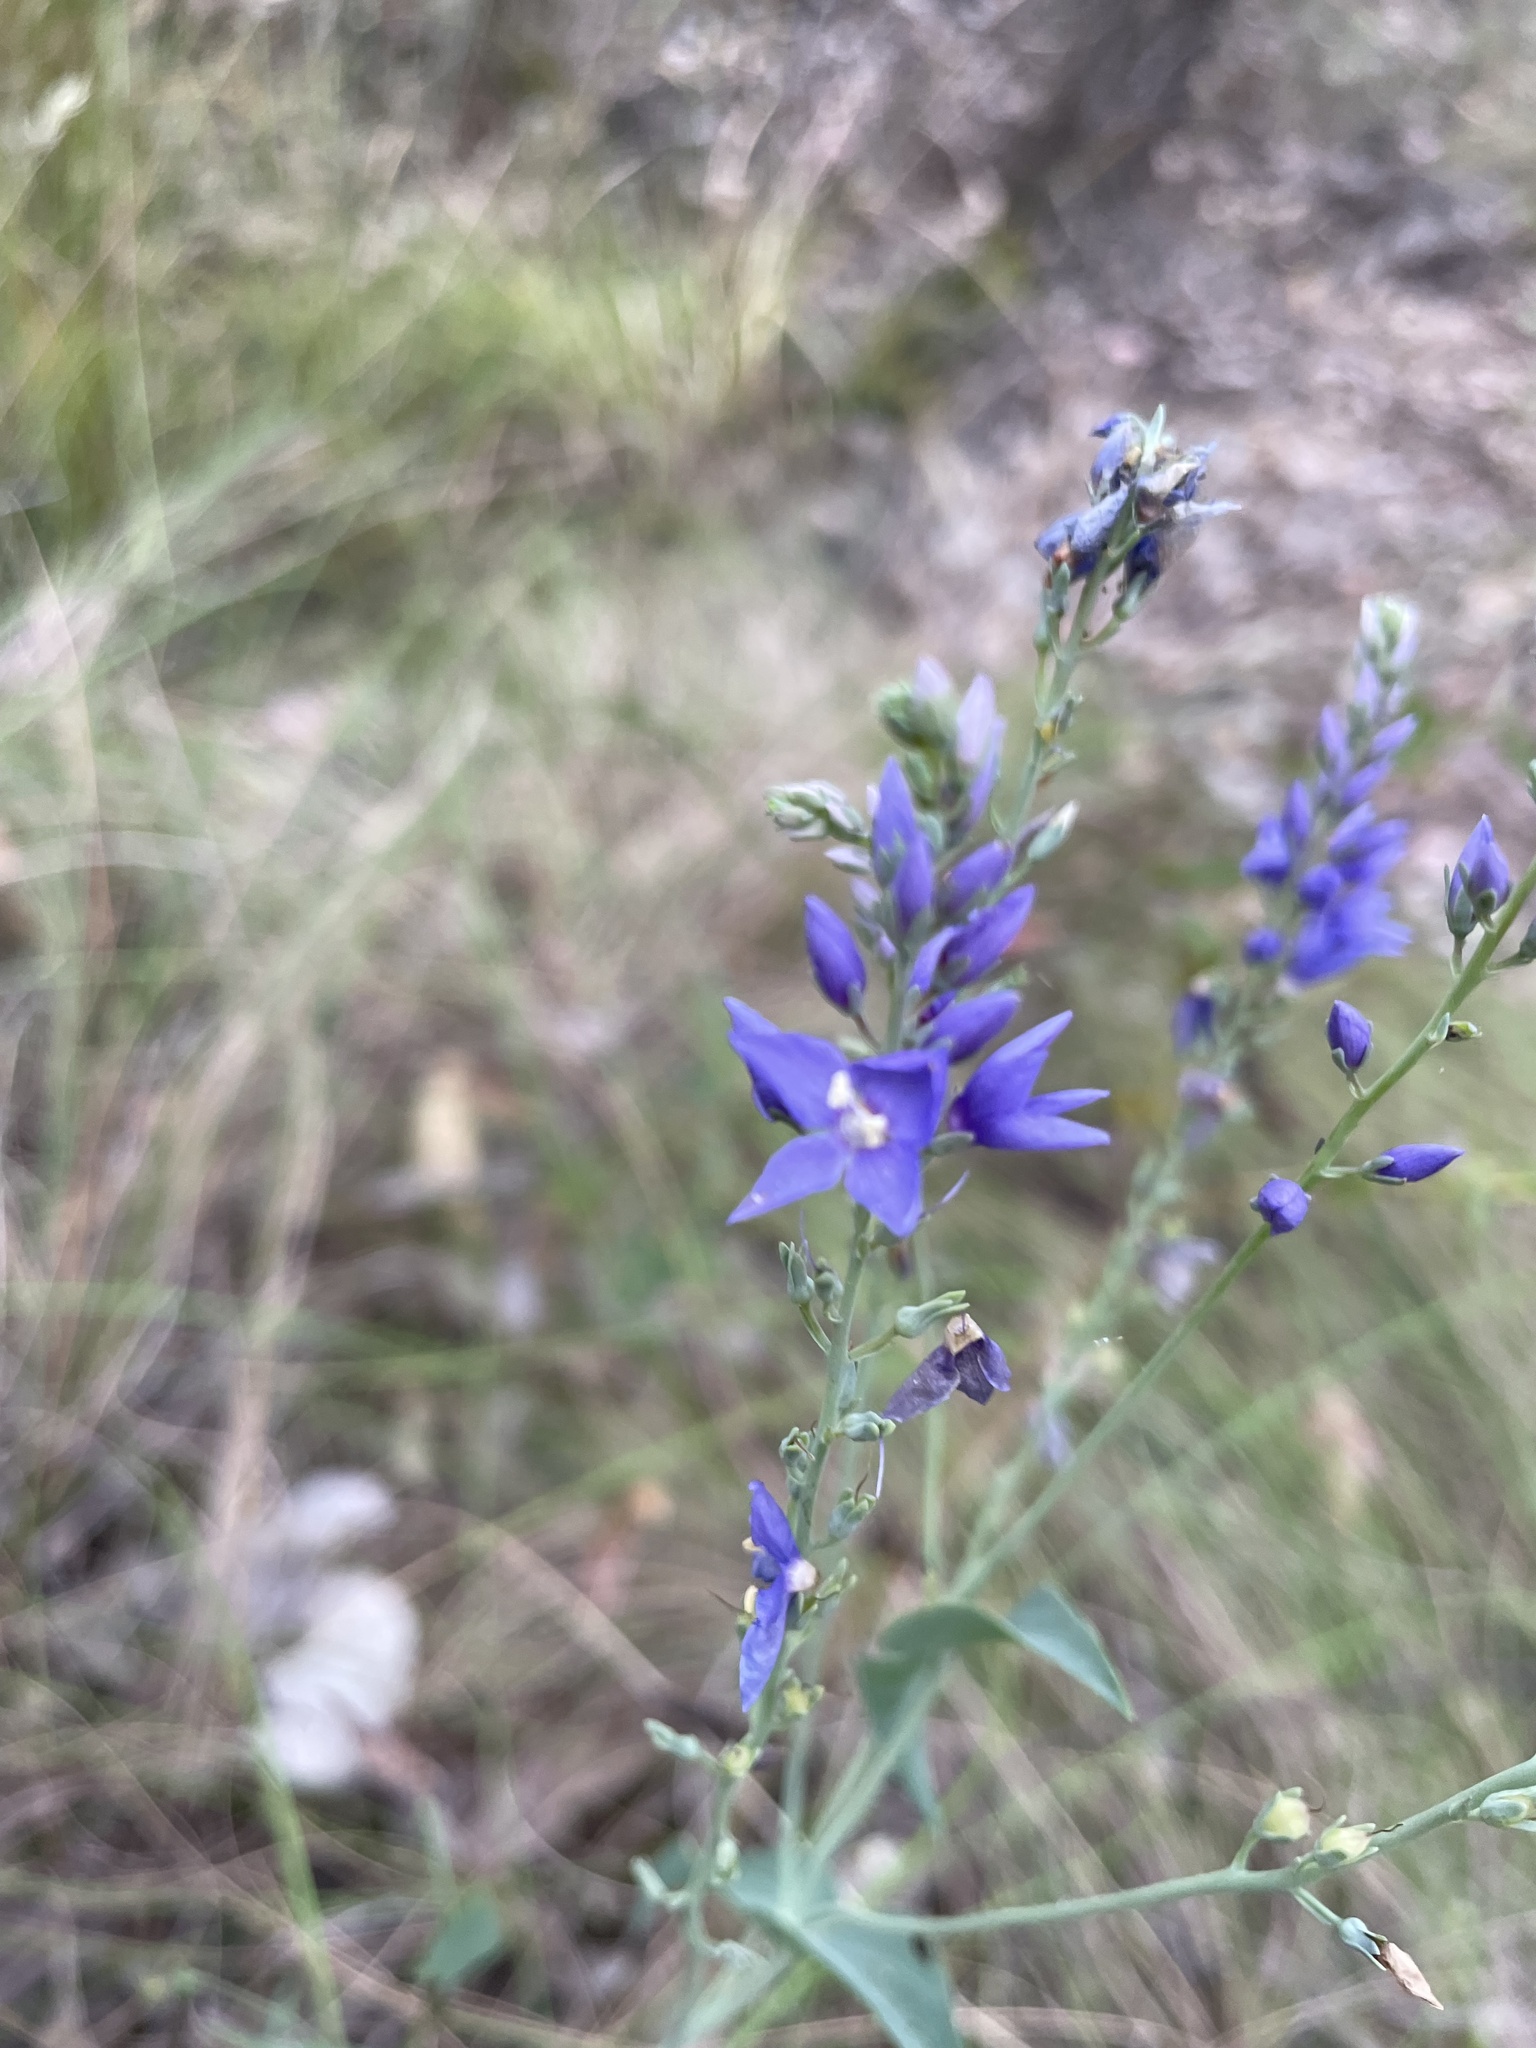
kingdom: Plantae
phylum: Tracheophyta
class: Magnoliopsida
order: Lamiales
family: Plantaginaceae
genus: Veronica
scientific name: Veronica perfoliata
